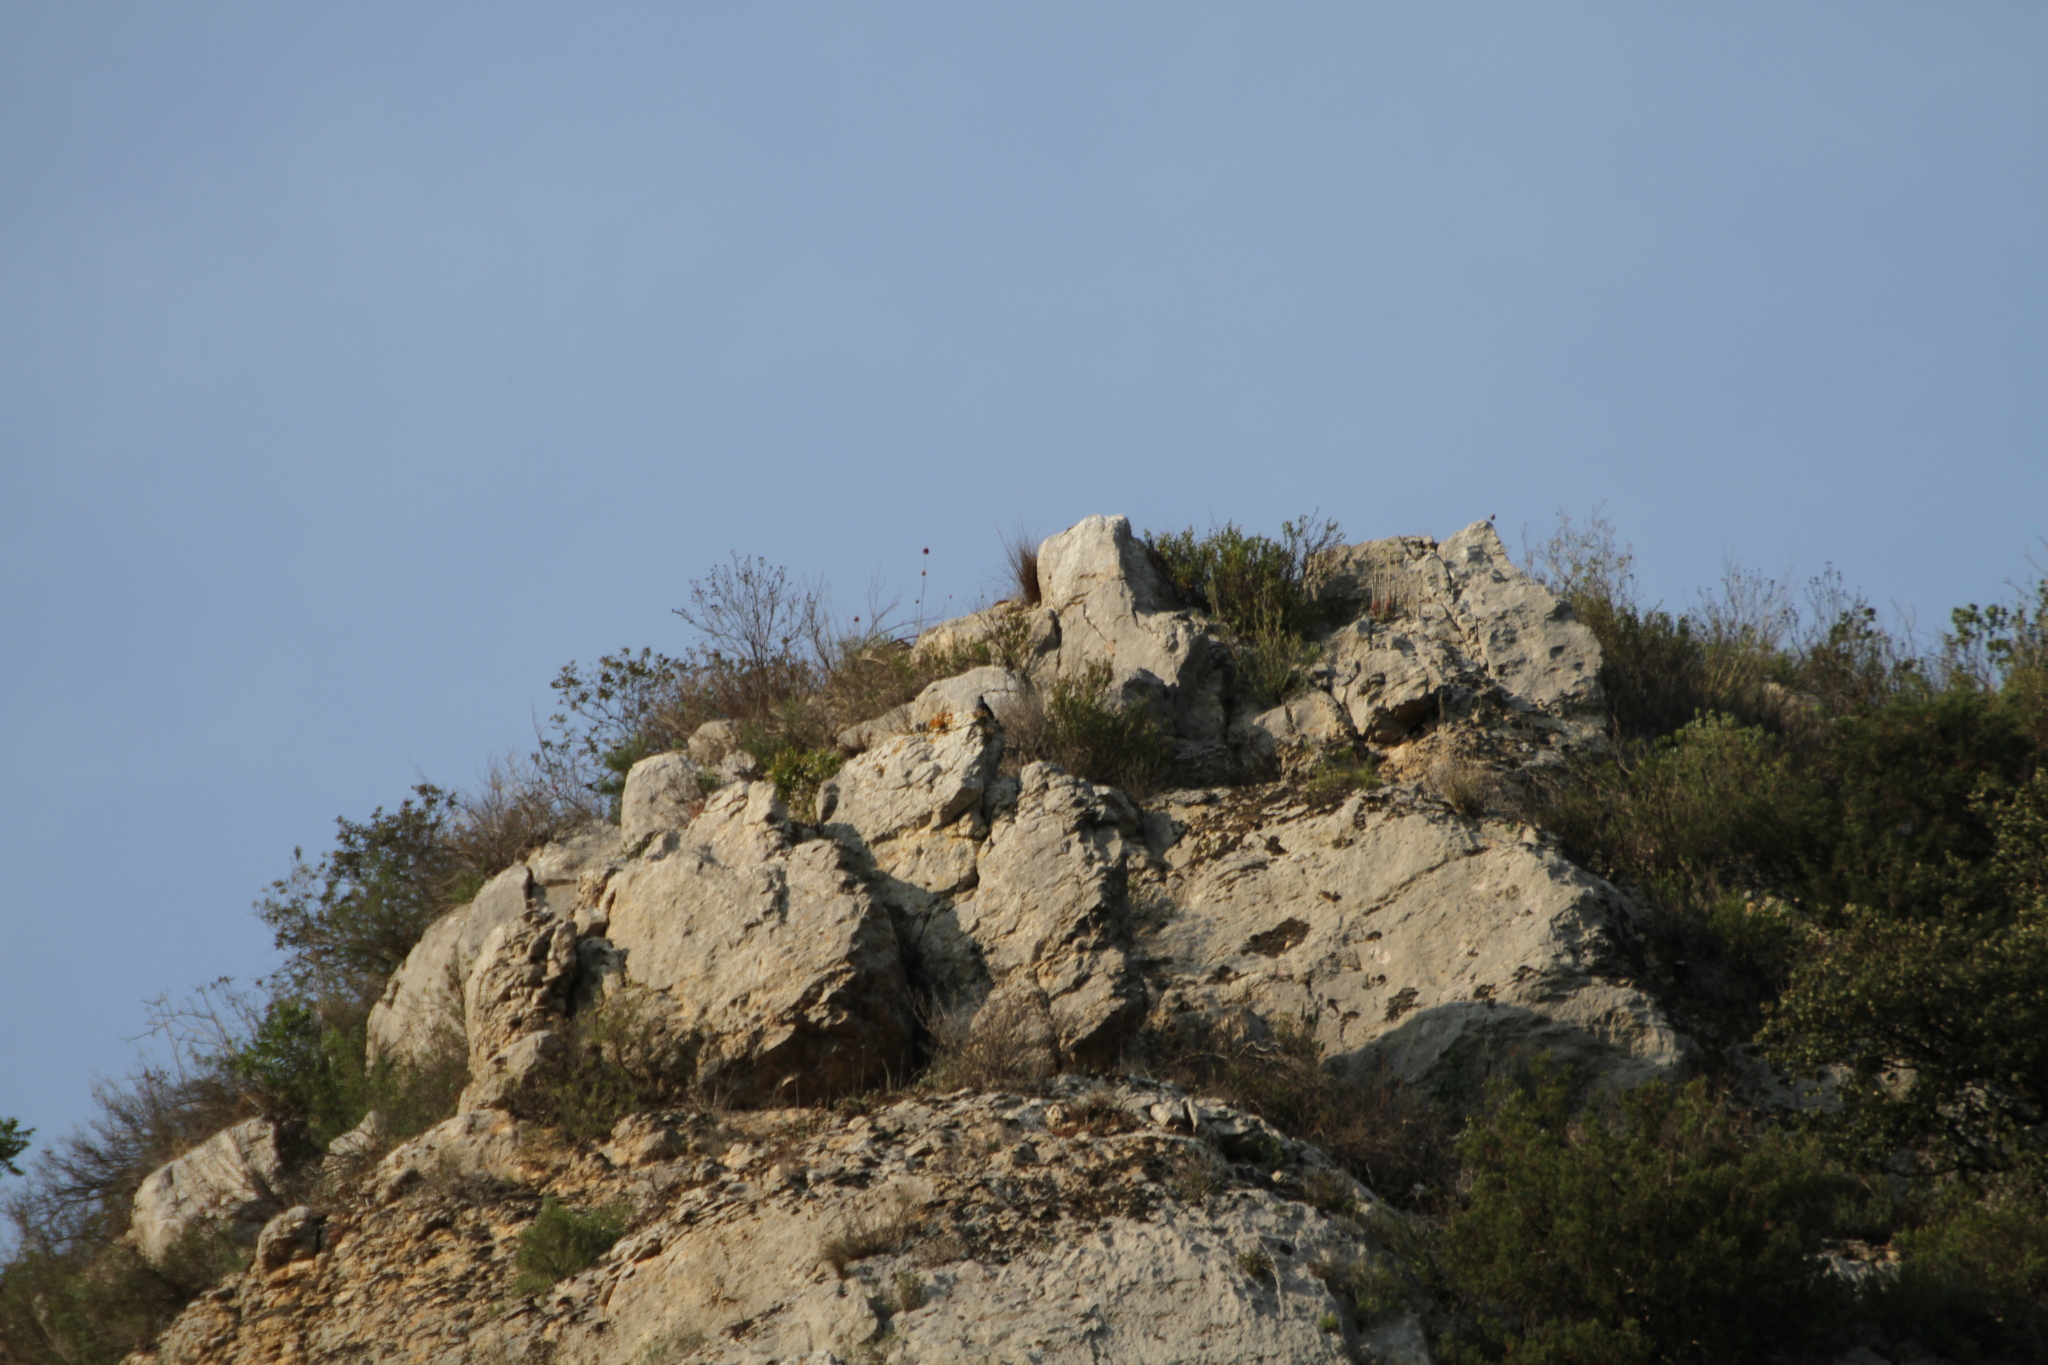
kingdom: Animalia
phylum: Chordata
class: Aves
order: Passeriformes
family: Muscicapidae
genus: Monticola
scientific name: Monticola solitarius
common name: Blue rock thrush
